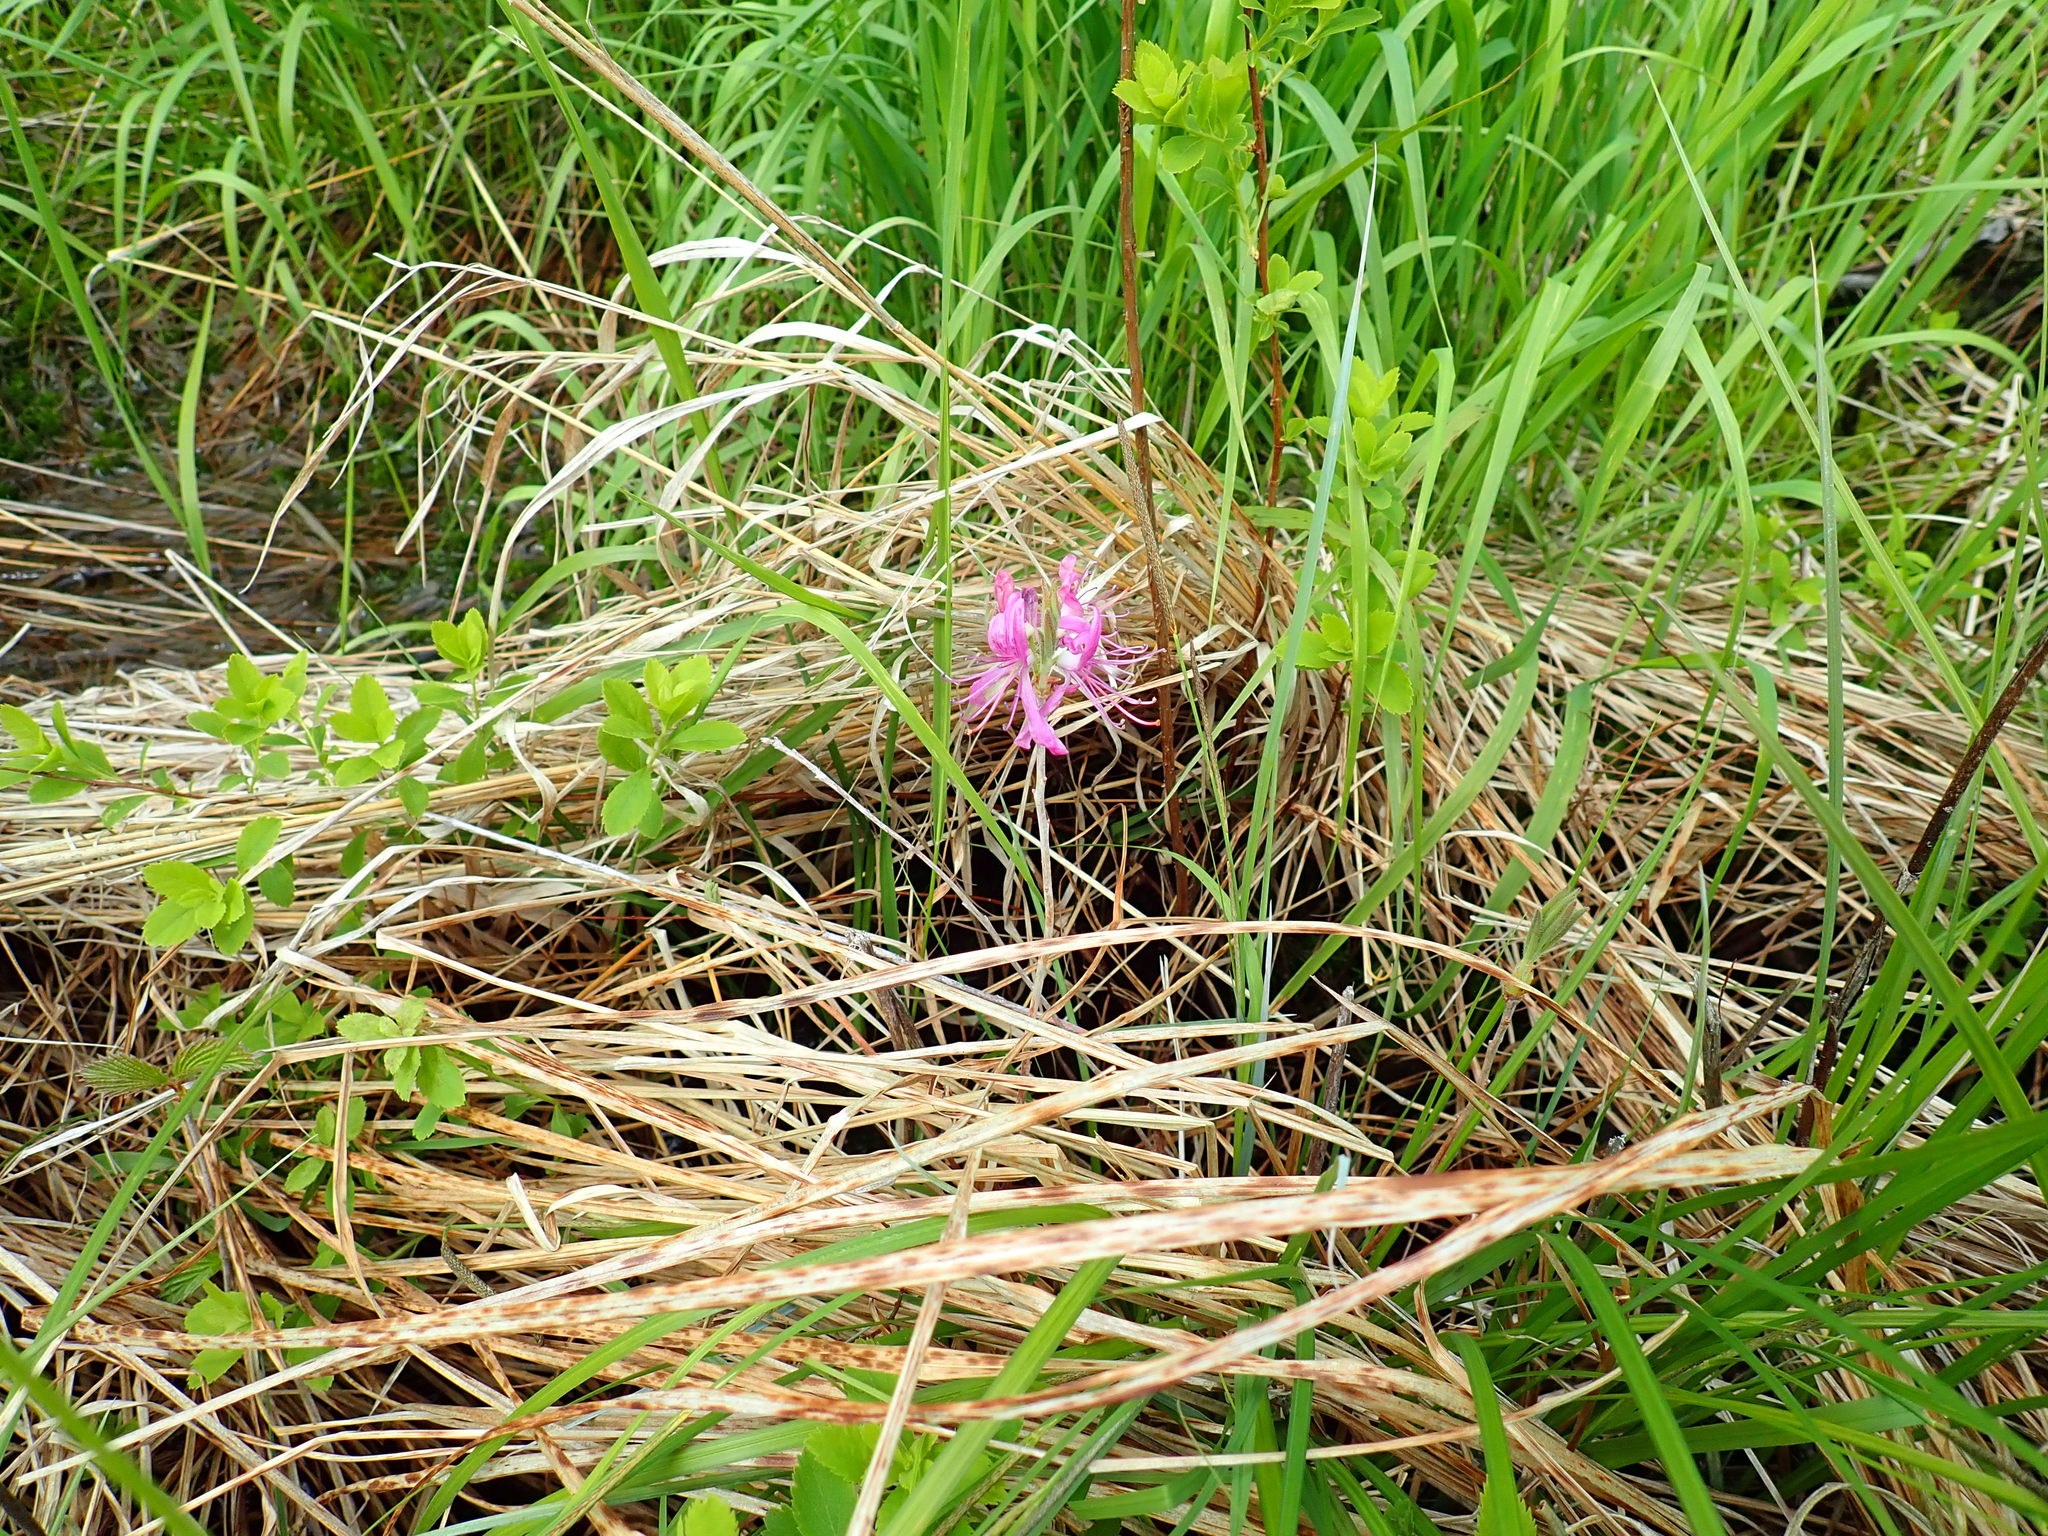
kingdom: Plantae
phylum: Tracheophyta
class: Magnoliopsida
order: Ericales
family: Ericaceae
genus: Rhododendron
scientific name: Rhododendron canadense
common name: Rhodora
